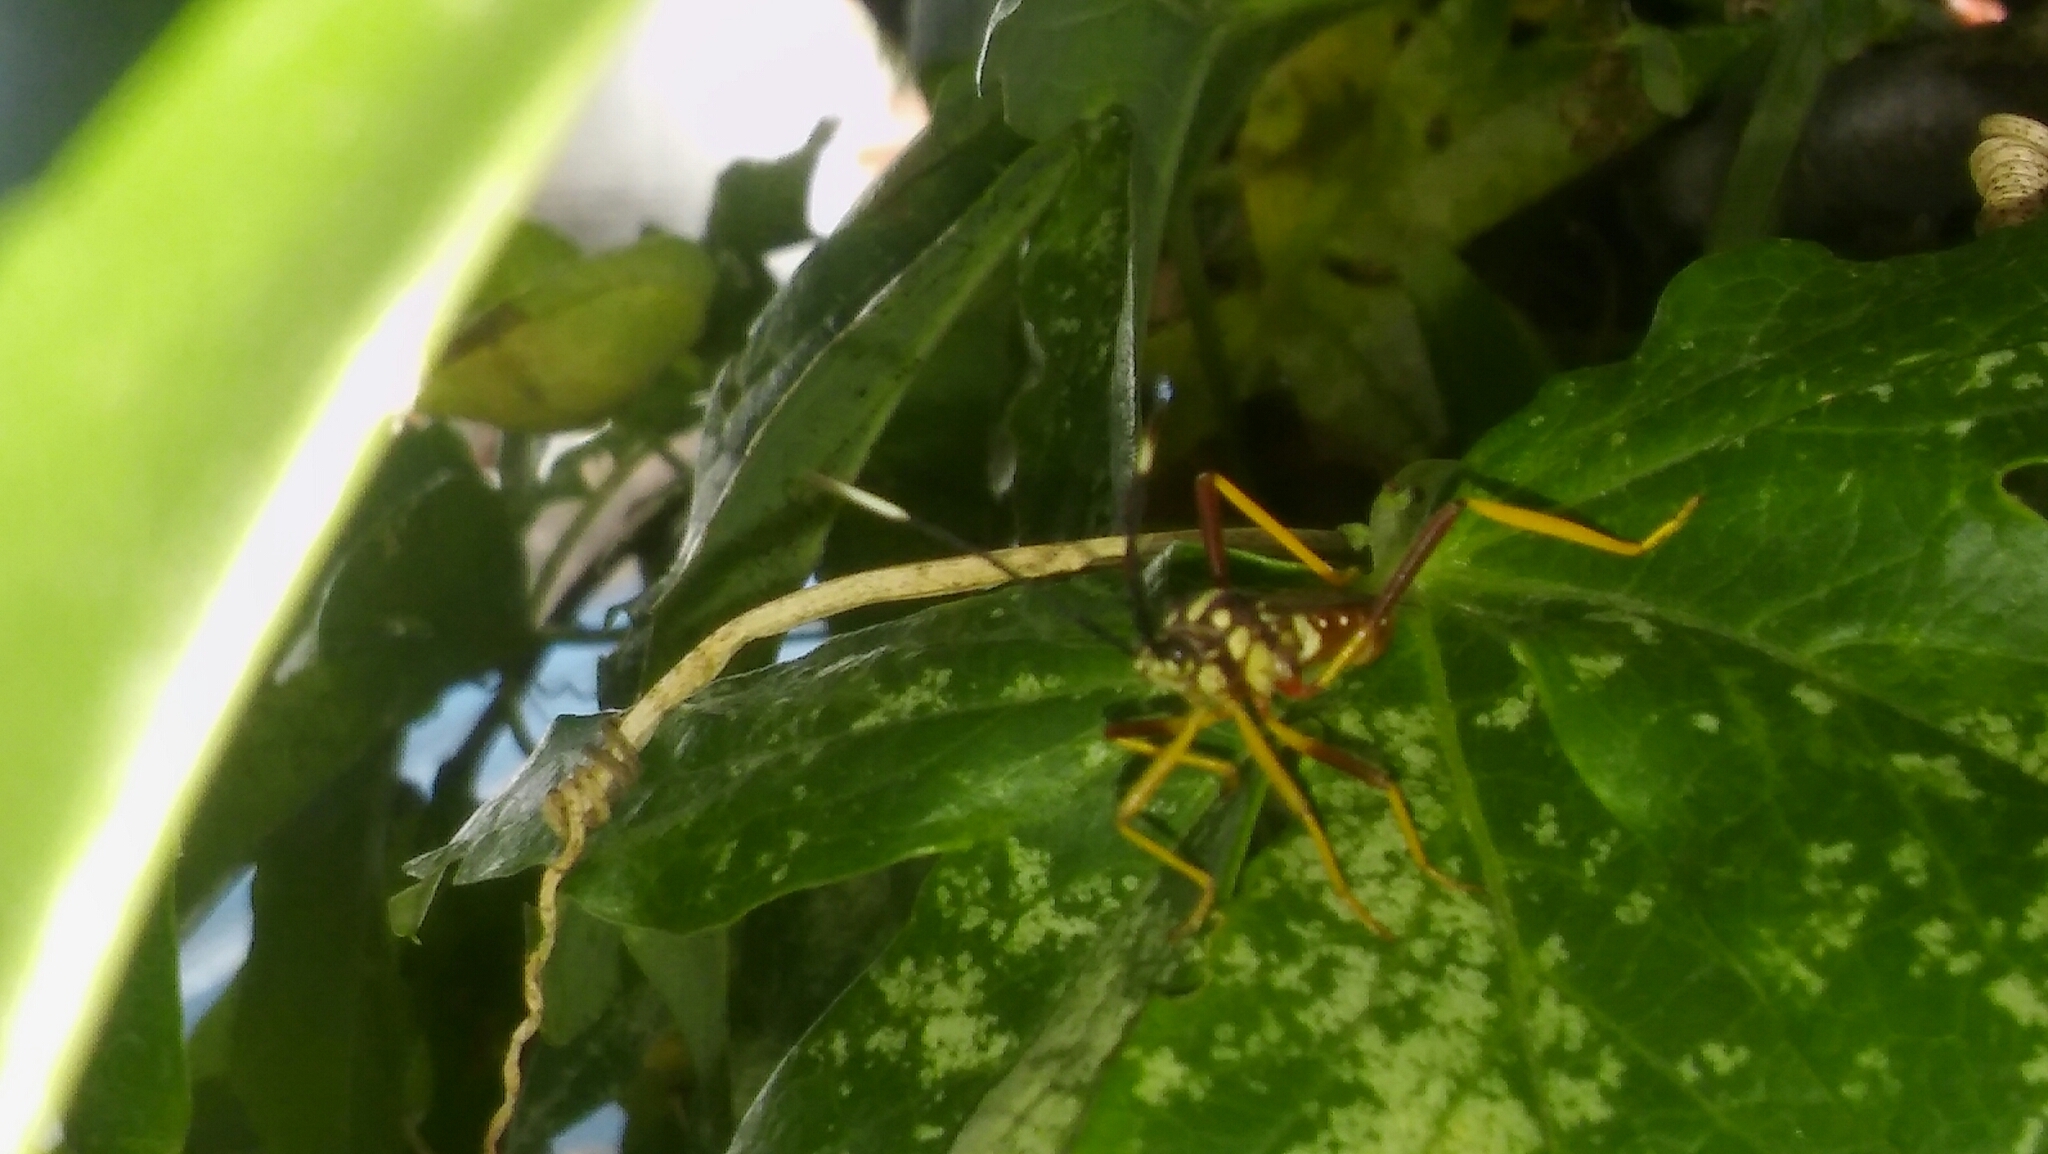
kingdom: Animalia
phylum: Arthropoda
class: Insecta
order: Hemiptera
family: Coreidae
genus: Holhymenia
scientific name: Holhymenia histrio
